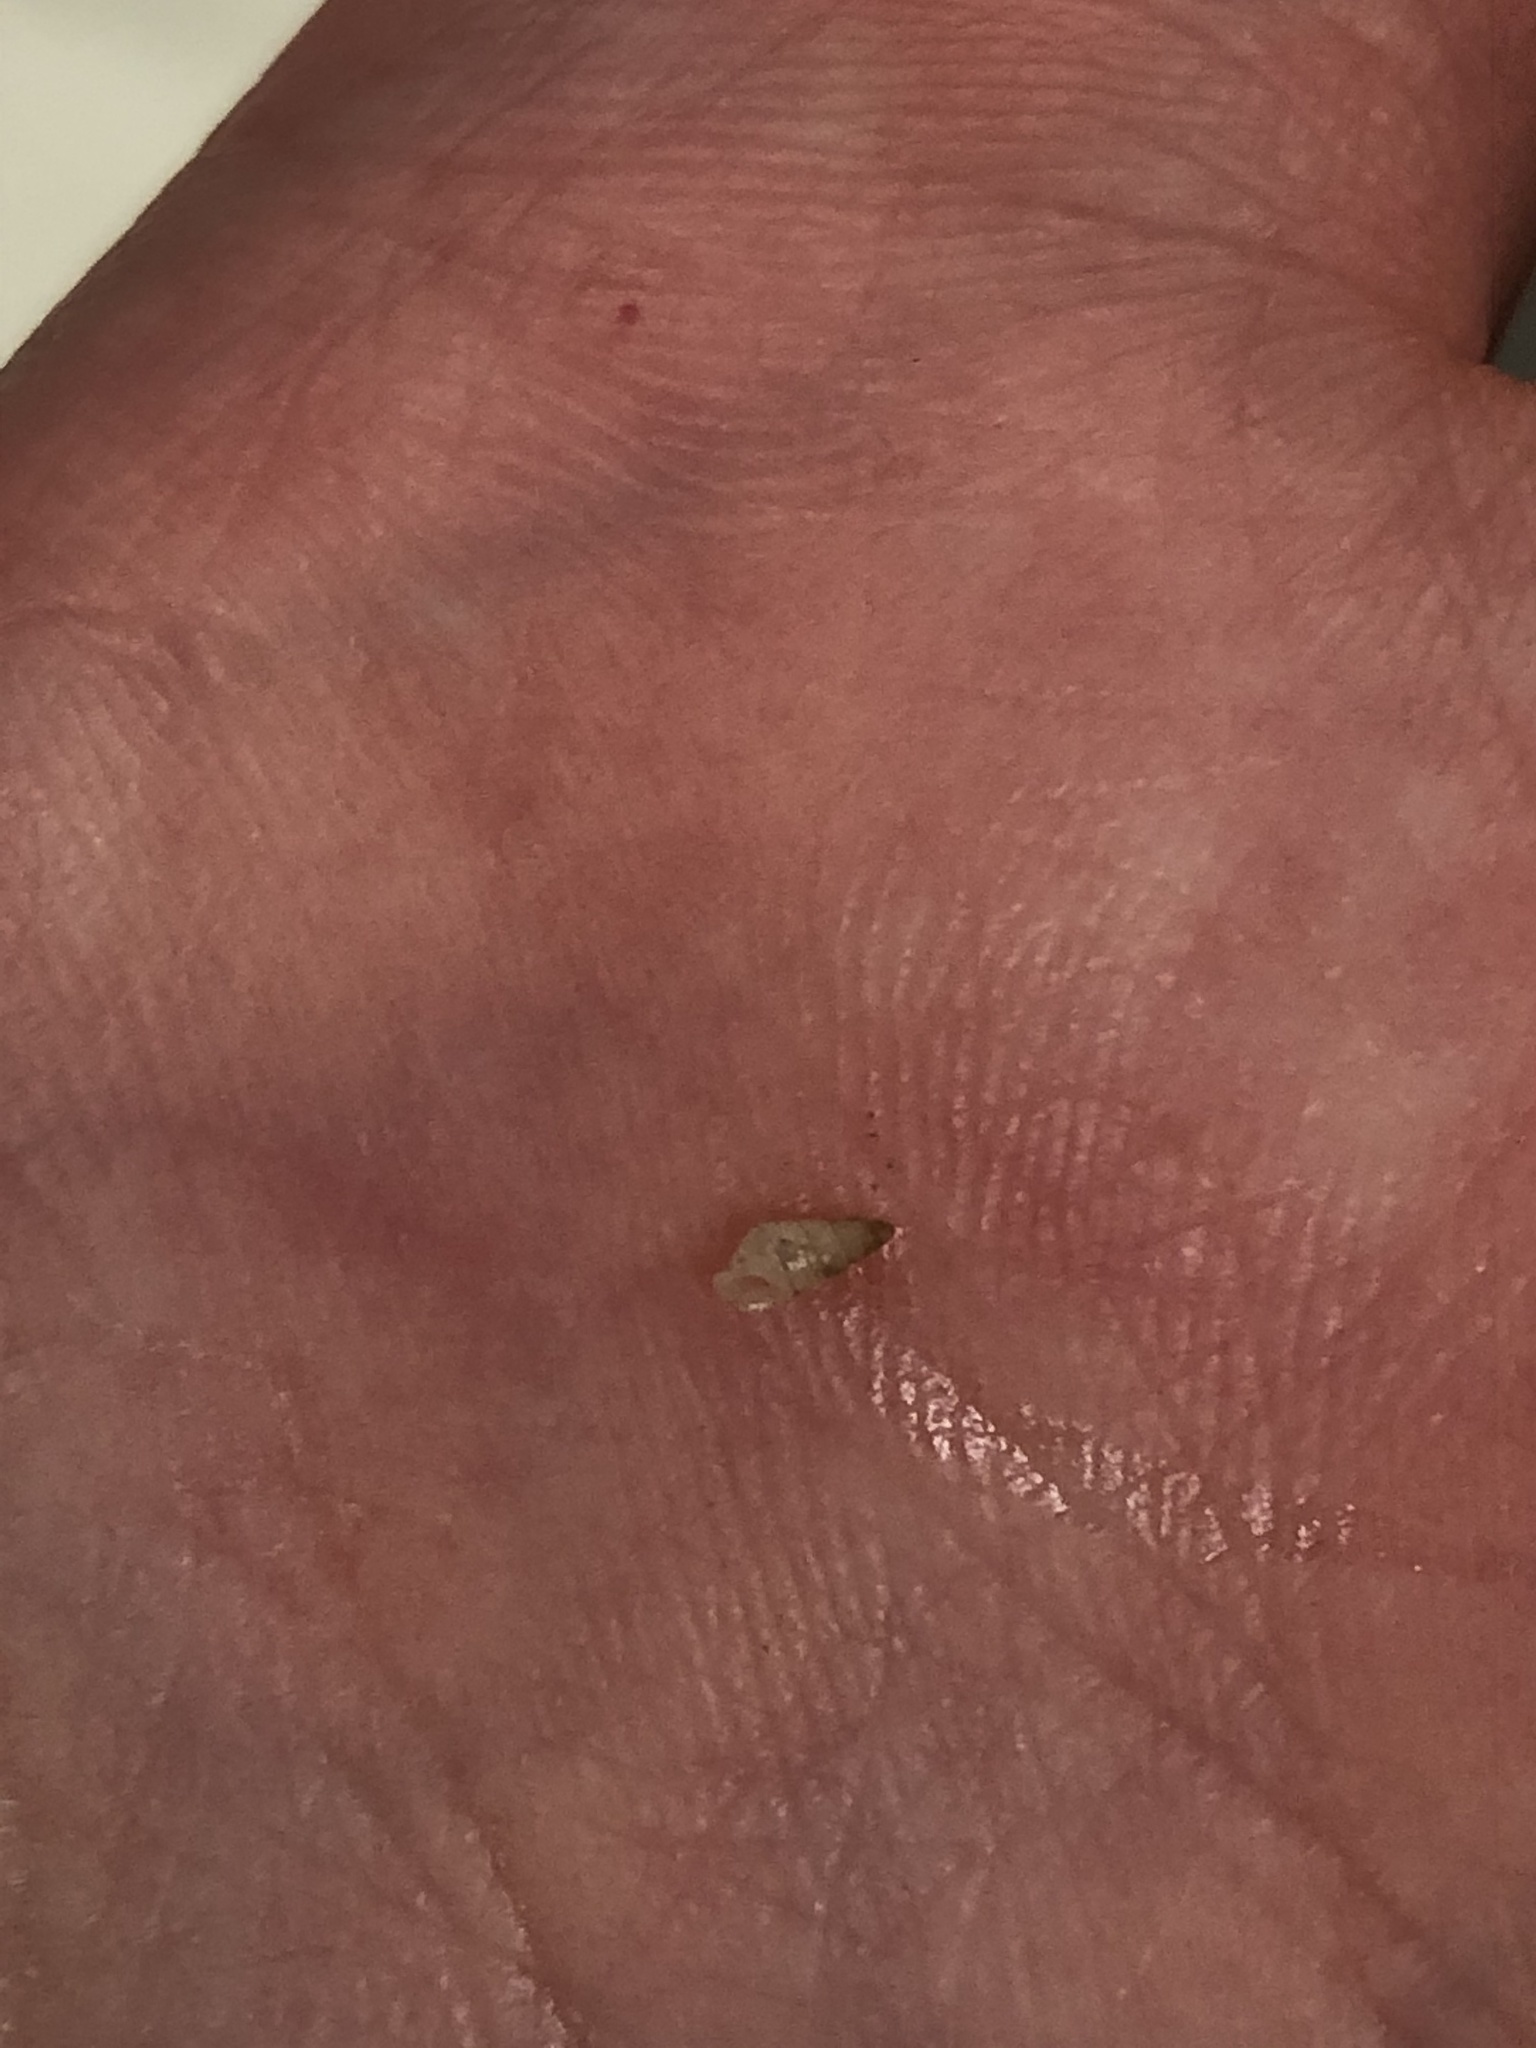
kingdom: Animalia
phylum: Mollusca
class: Gastropoda
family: Pyramidellidae
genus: Boonea
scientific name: Boonea impressa
